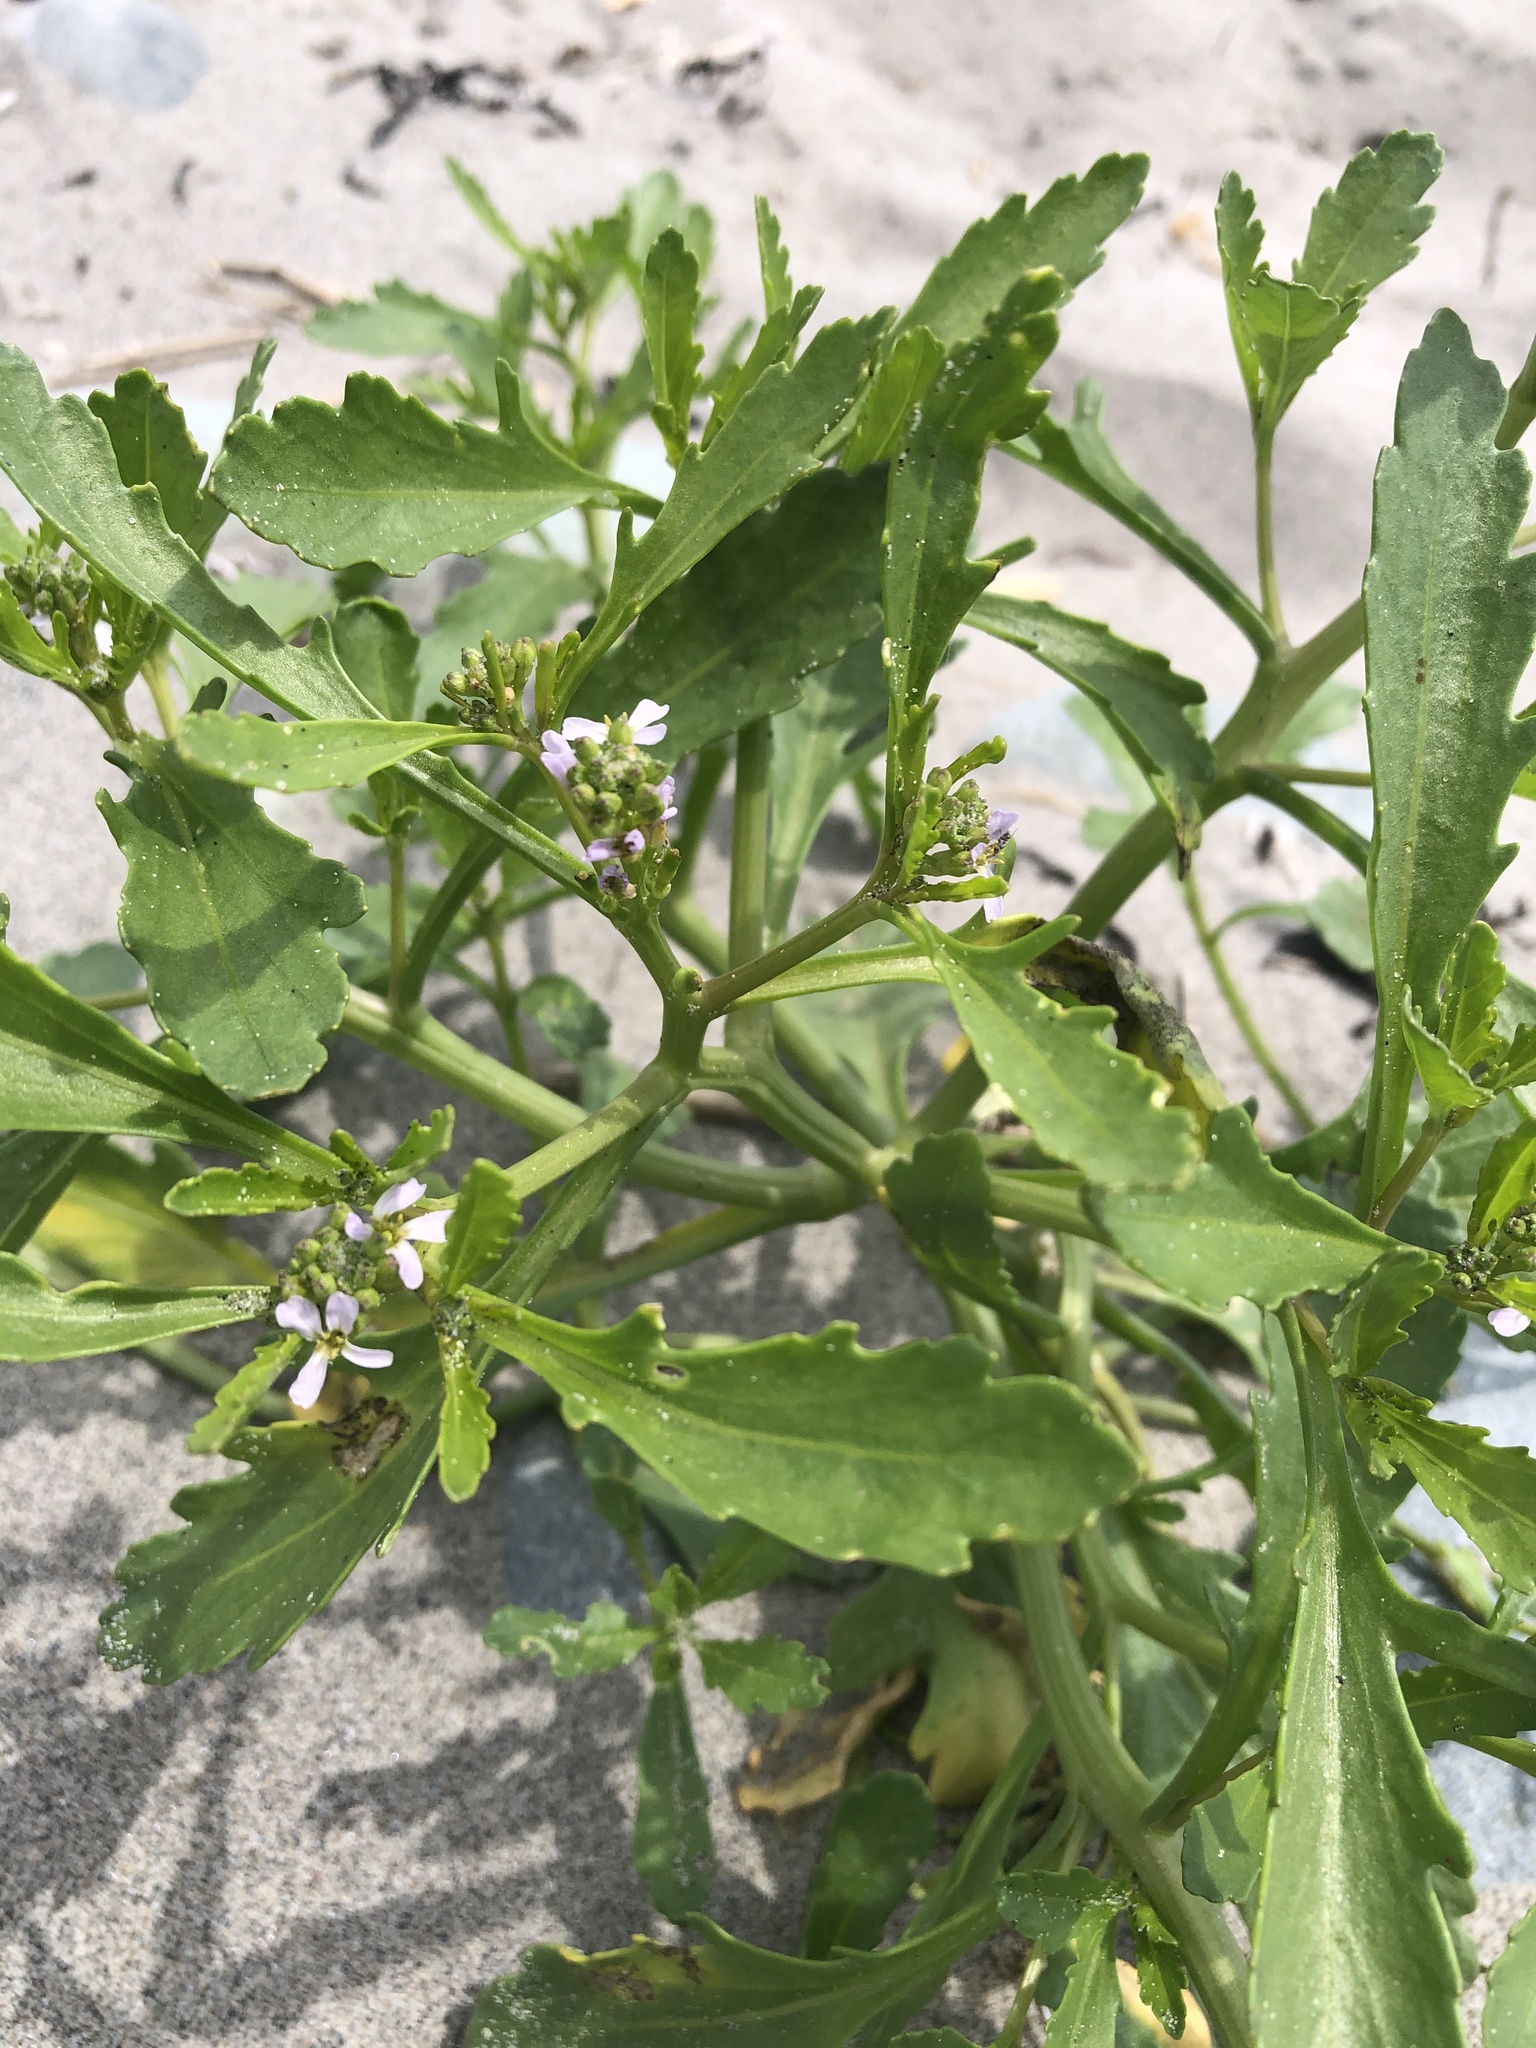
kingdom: Plantae
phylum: Tracheophyta
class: Magnoliopsida
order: Brassicales
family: Brassicaceae
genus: Cakile
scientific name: Cakile edentula
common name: American sea rocket
